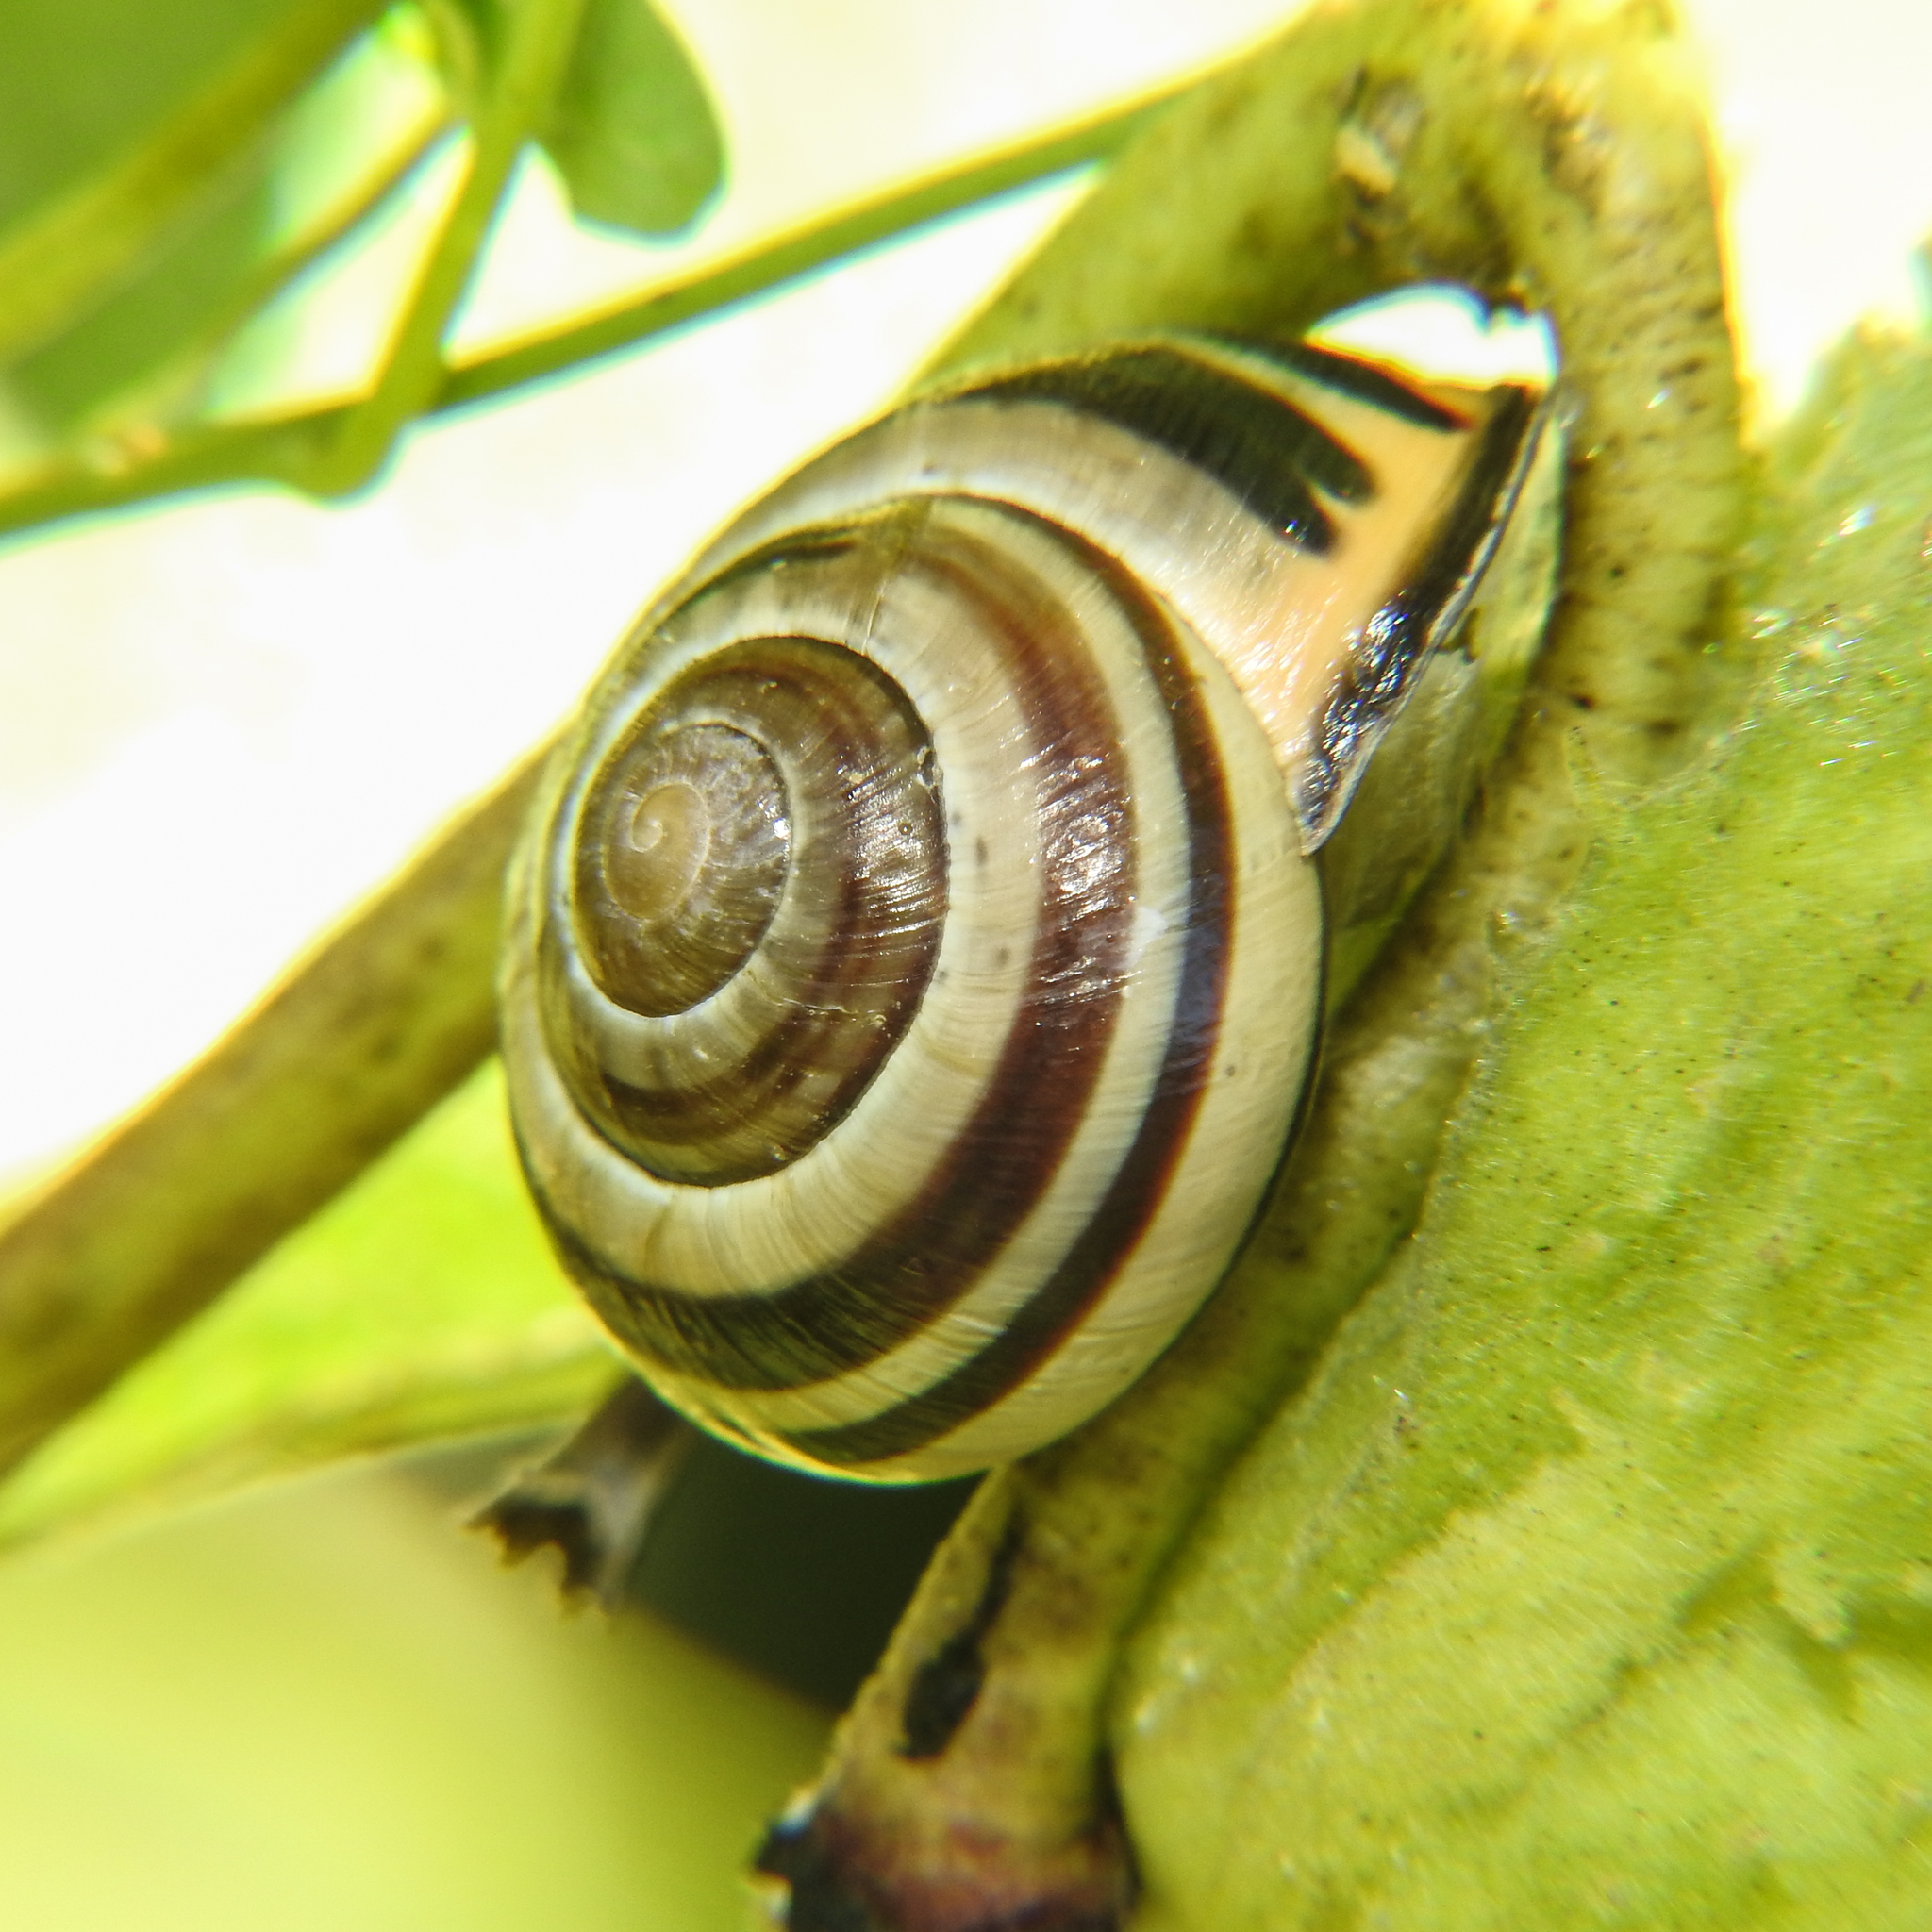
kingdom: Animalia
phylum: Mollusca
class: Gastropoda
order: Stylommatophora
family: Helicidae
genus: Cepaea
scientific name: Cepaea nemoralis
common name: Grovesnail
